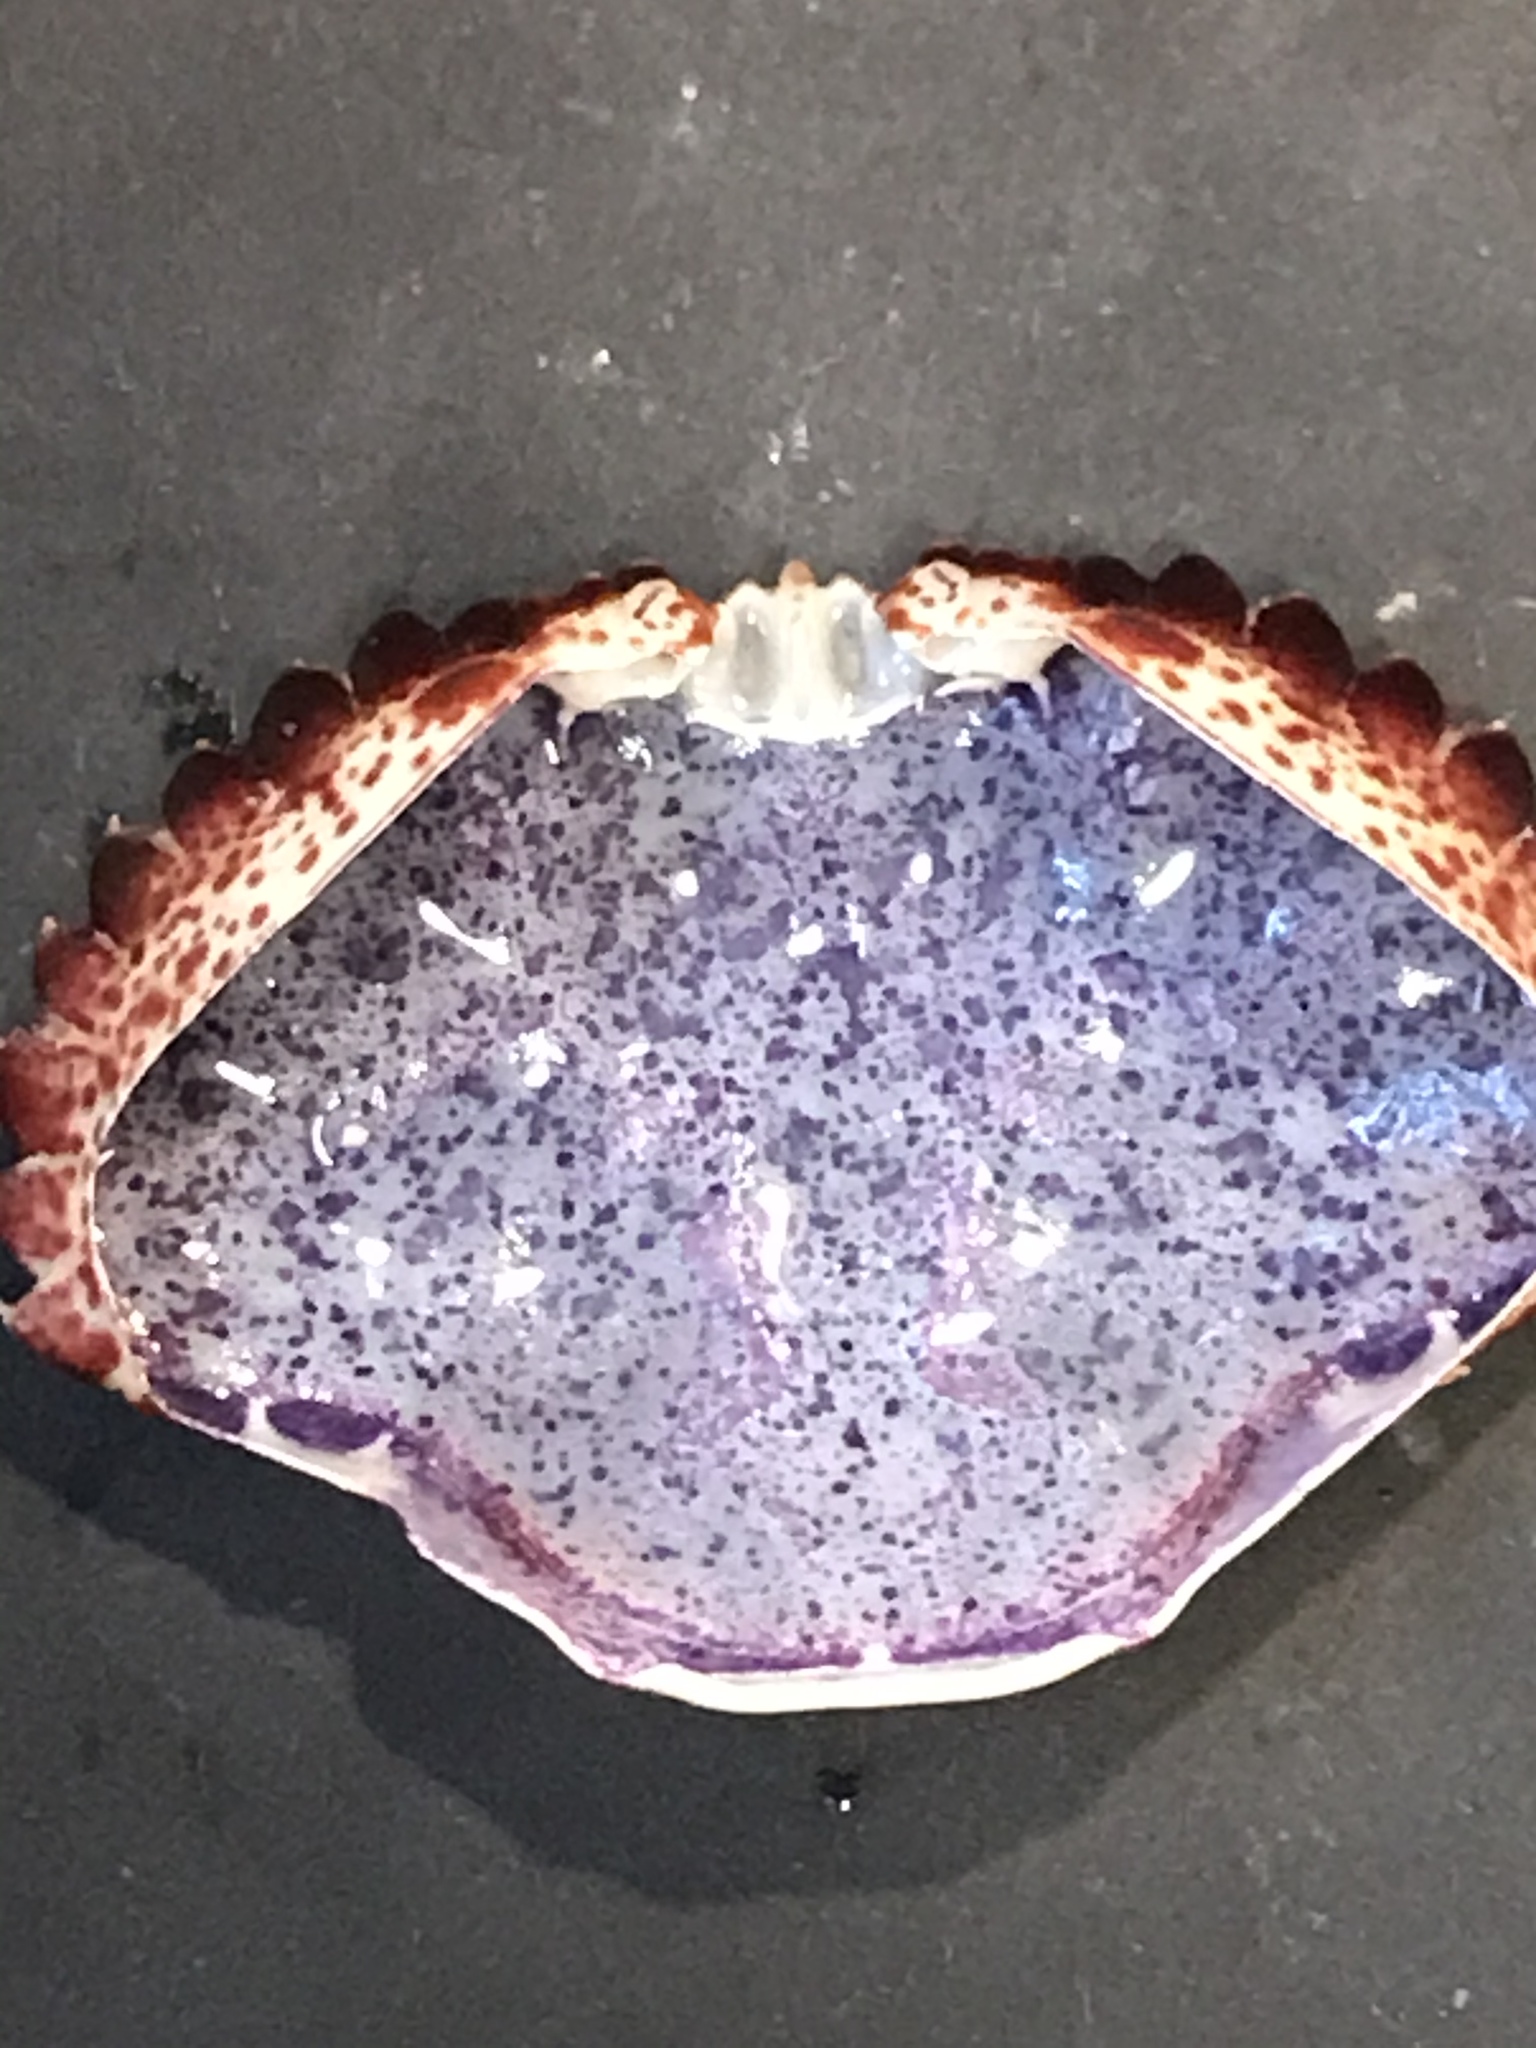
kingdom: Animalia
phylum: Arthropoda
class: Malacostraca
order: Decapoda
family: Cancridae
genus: Romaleon
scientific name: Romaleon antennarium
